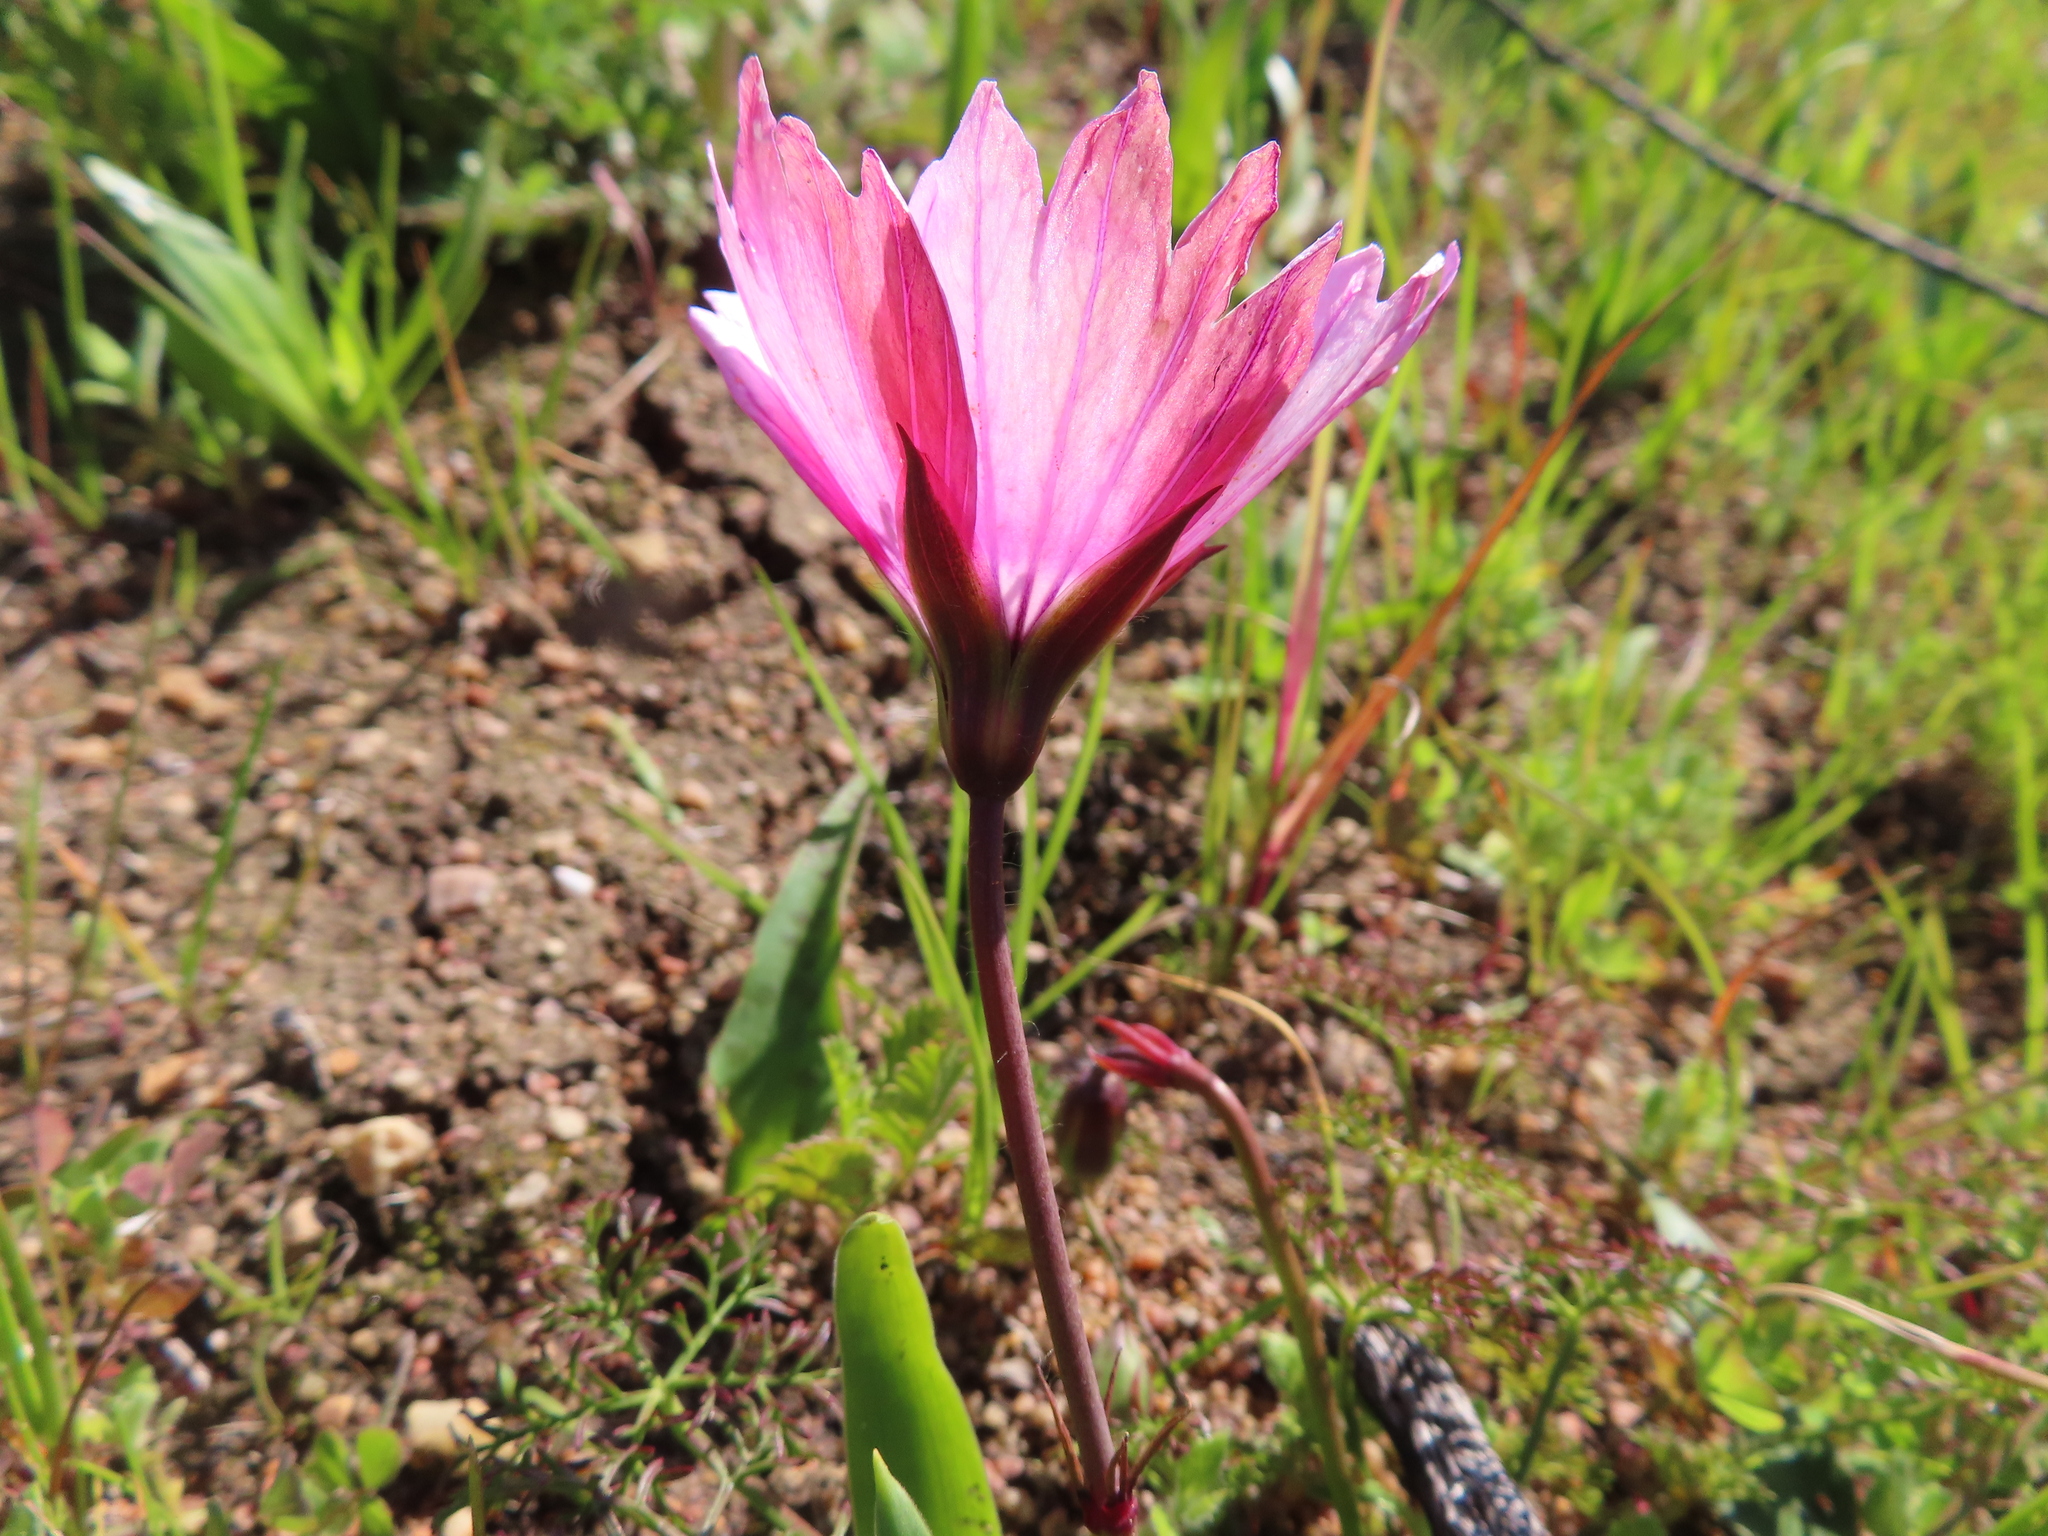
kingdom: Plantae
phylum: Tracheophyta
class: Magnoliopsida
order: Geraniales
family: Geraniaceae
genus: Monsonia
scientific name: Monsonia speciosa
